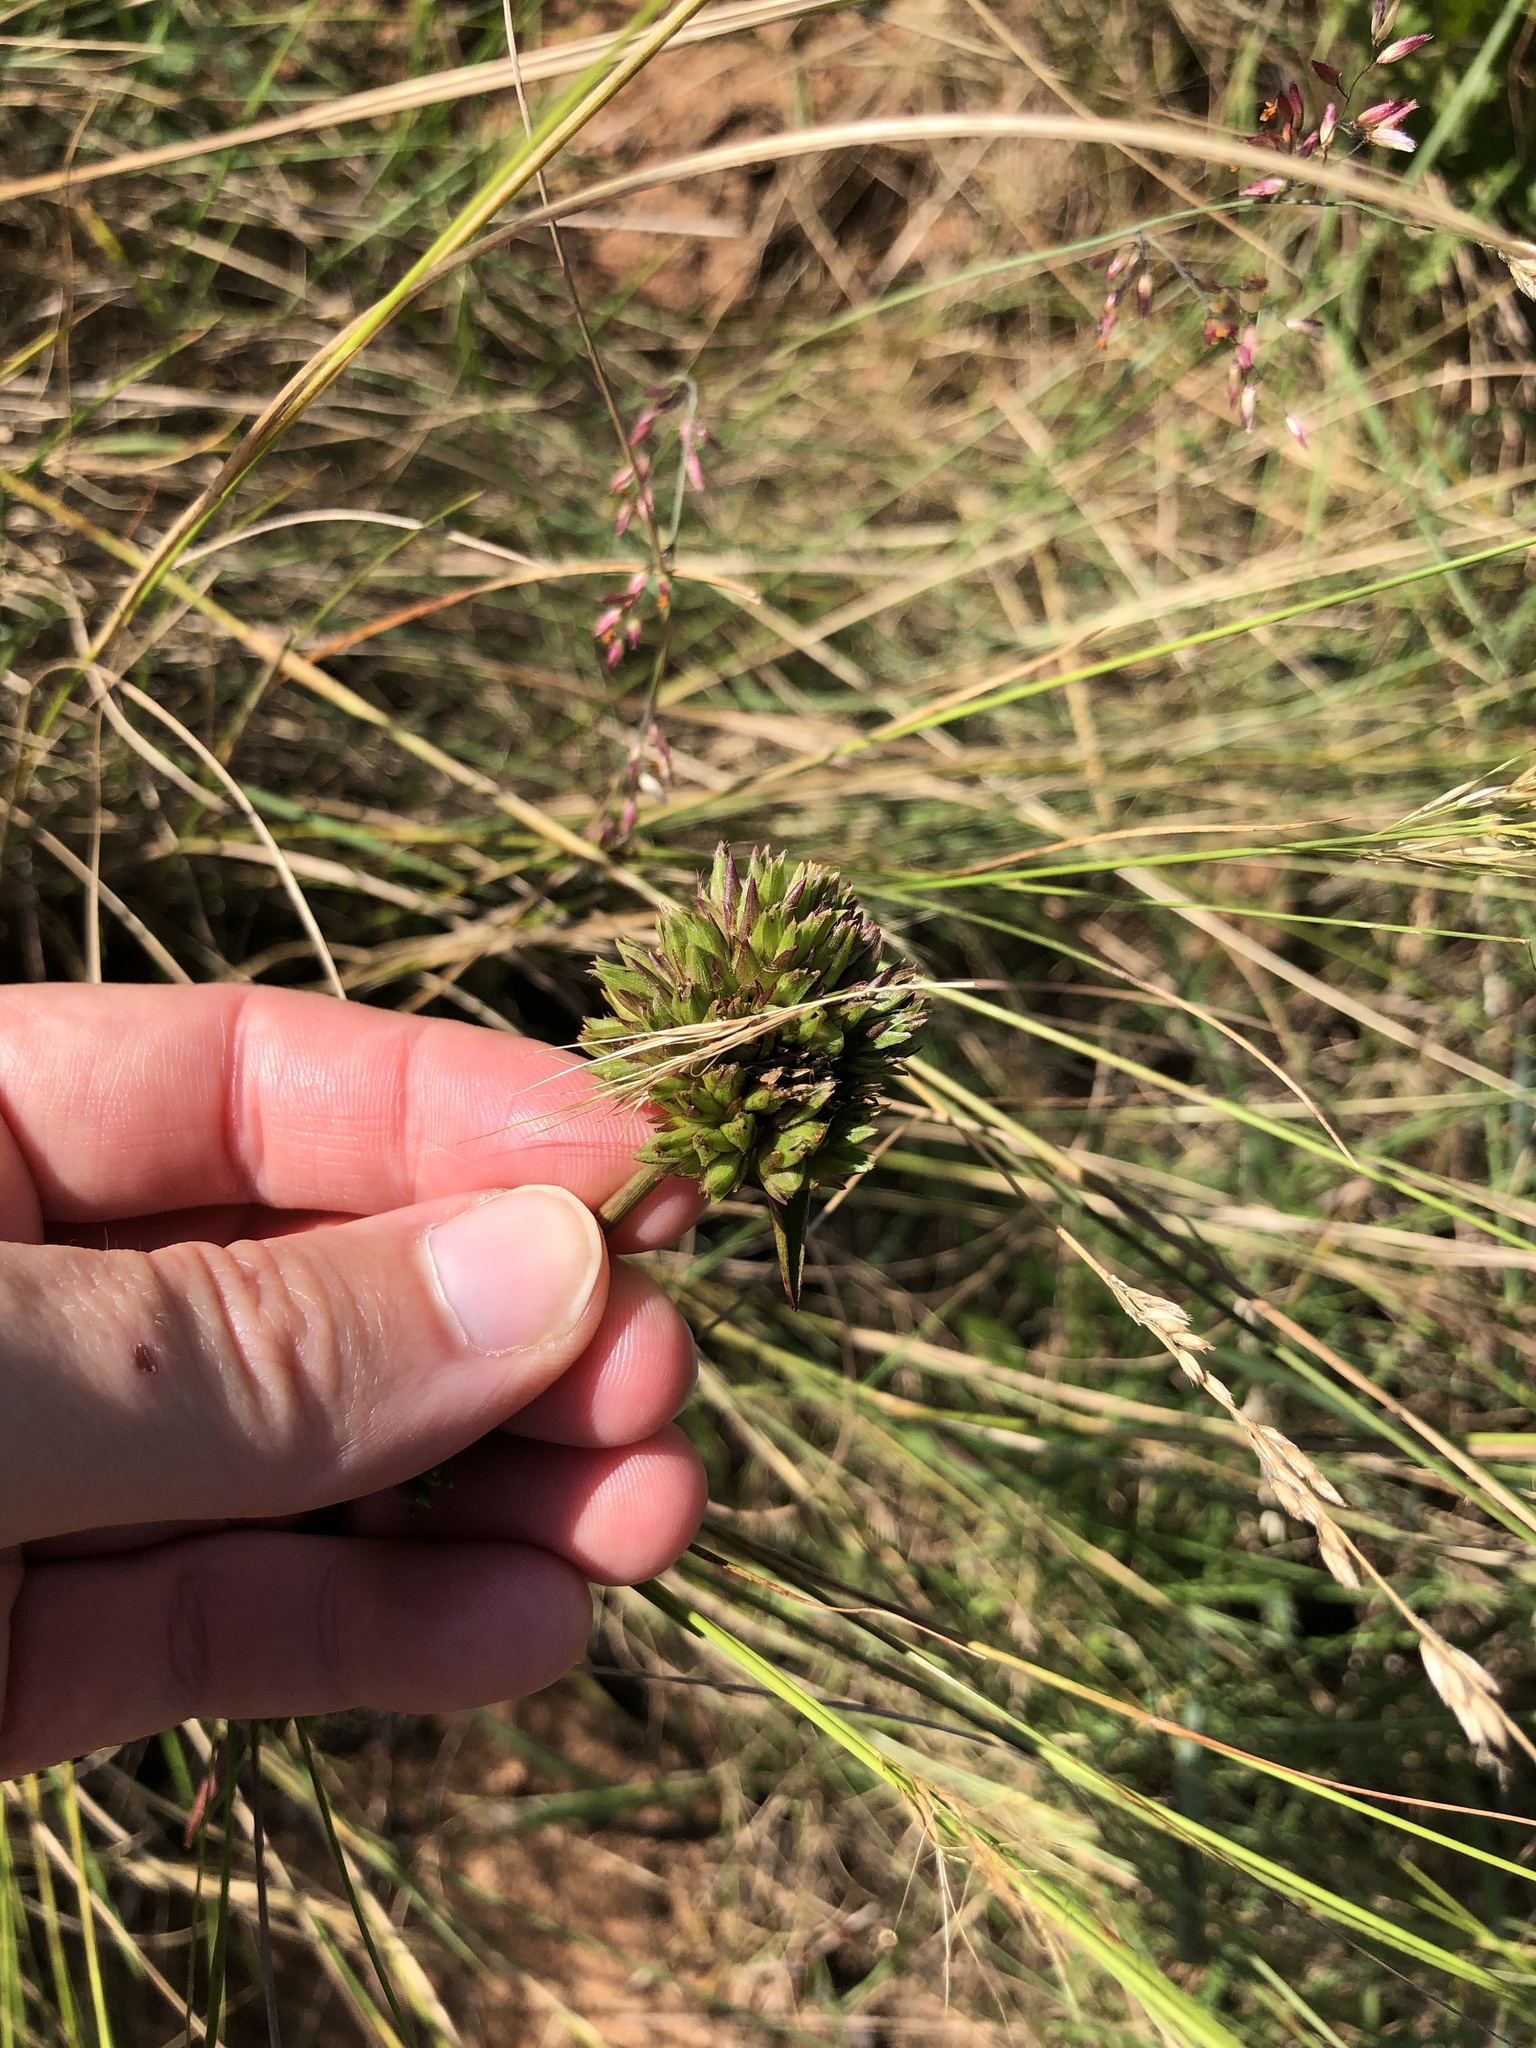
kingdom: Plantae
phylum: Tracheophyta
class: Liliopsida
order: Commelinales
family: Commelinaceae
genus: Cyanotis
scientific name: Cyanotis speciosa
